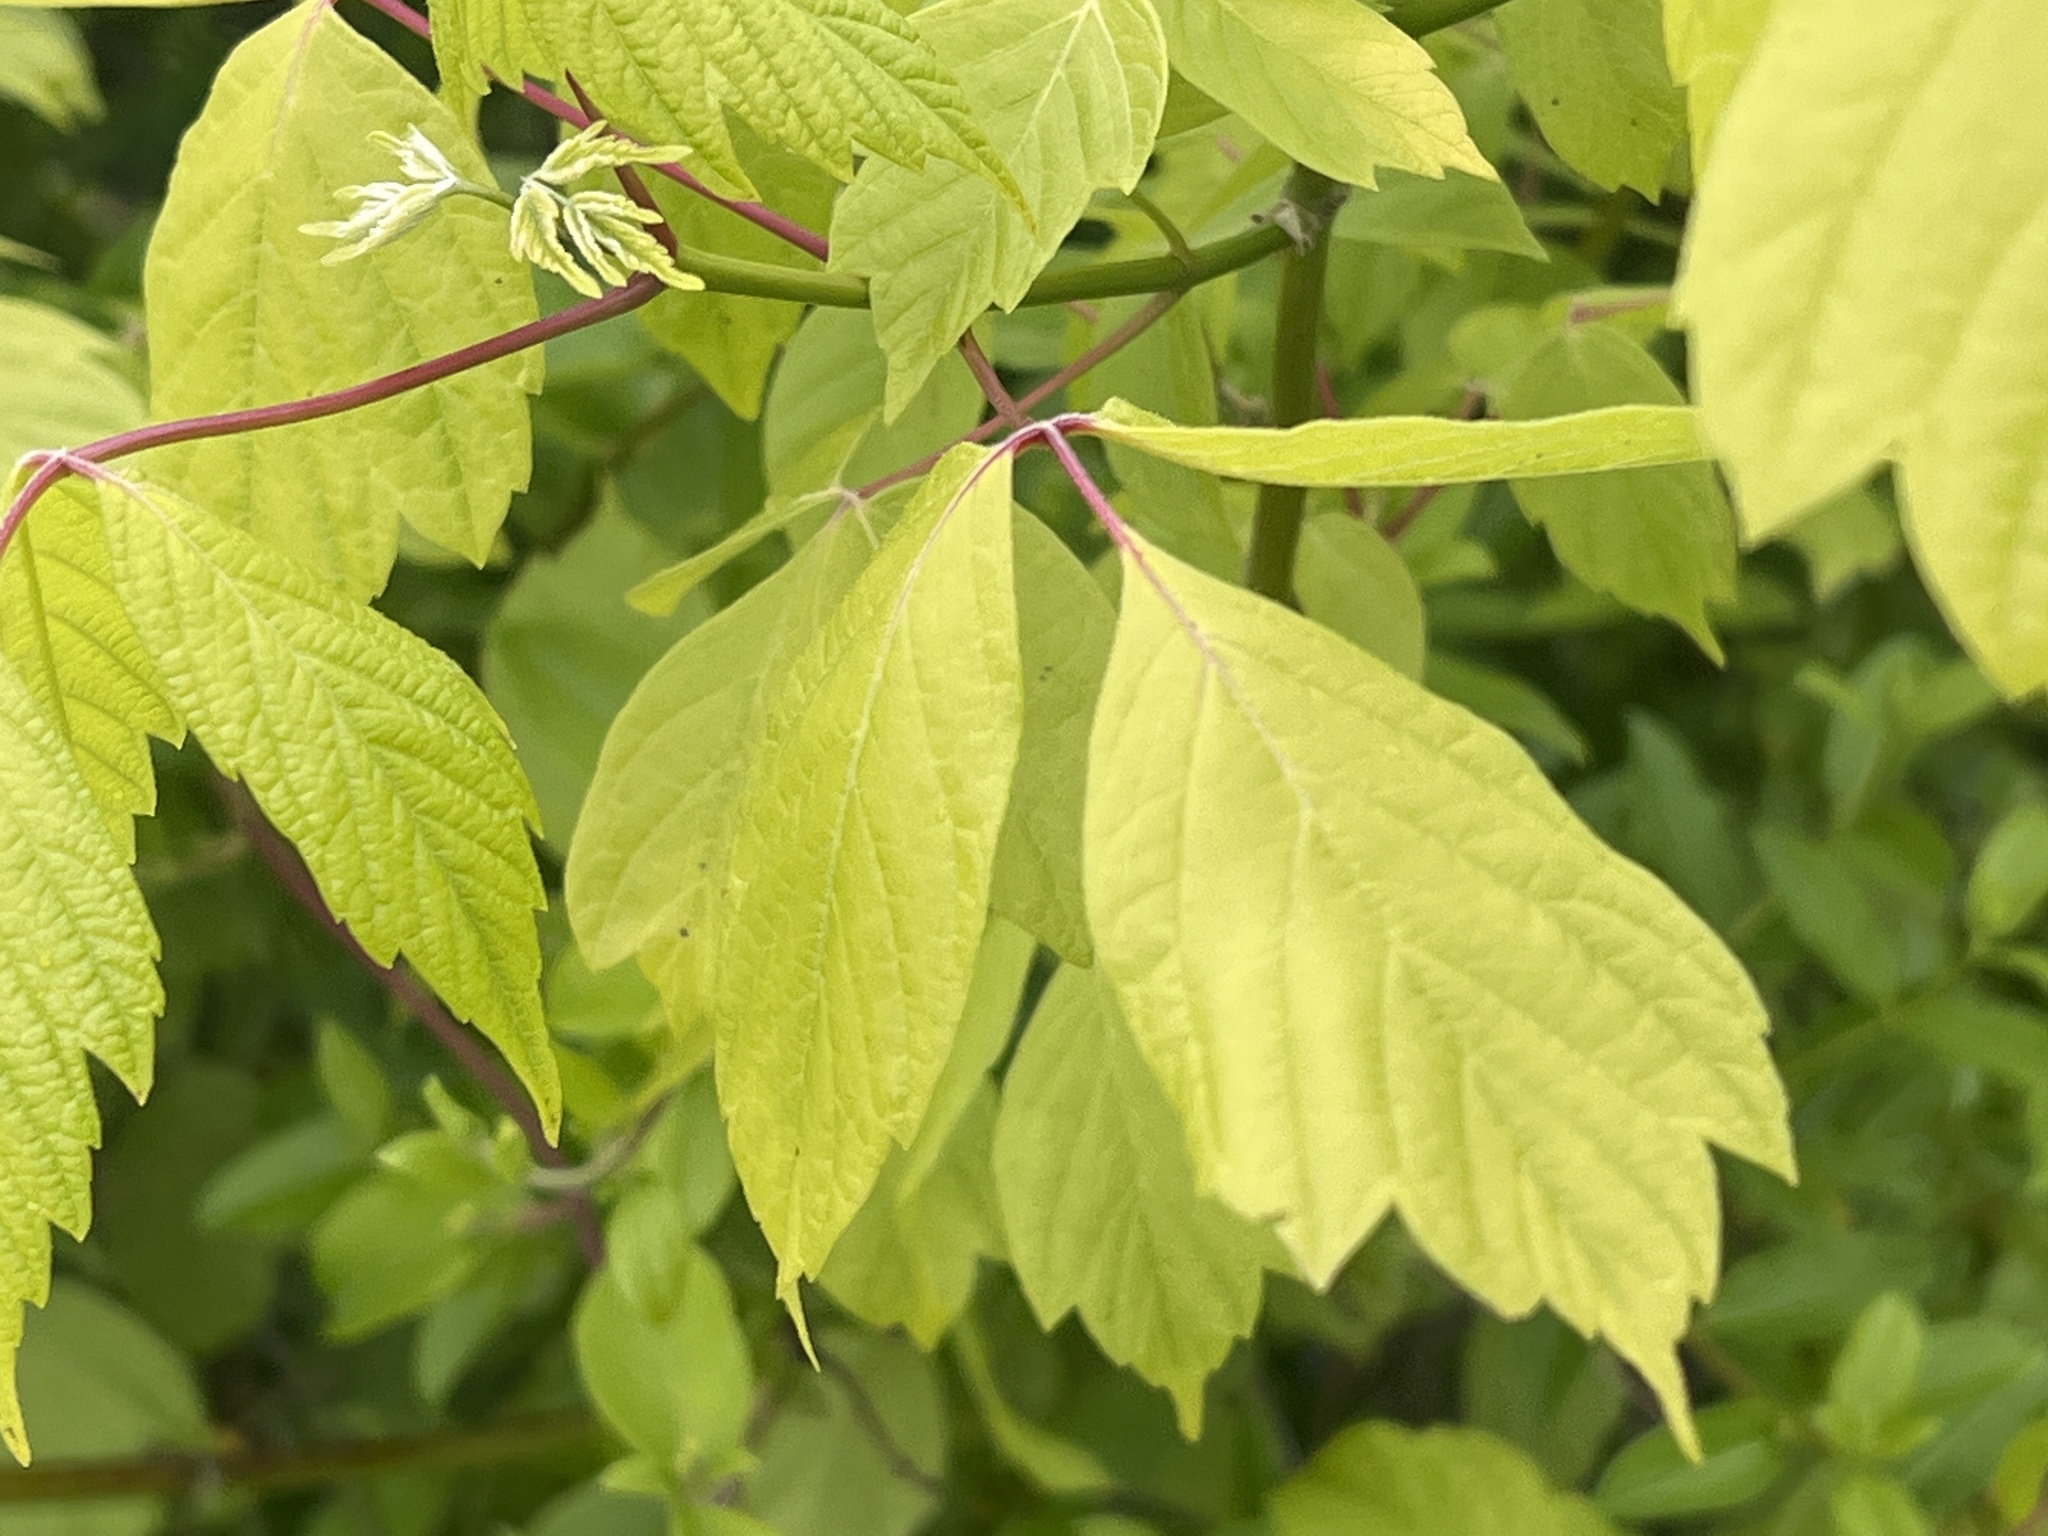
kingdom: Plantae
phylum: Tracheophyta
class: Magnoliopsida
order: Sapindales
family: Sapindaceae
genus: Acer
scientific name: Acer negundo
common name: Ashleaf maple
